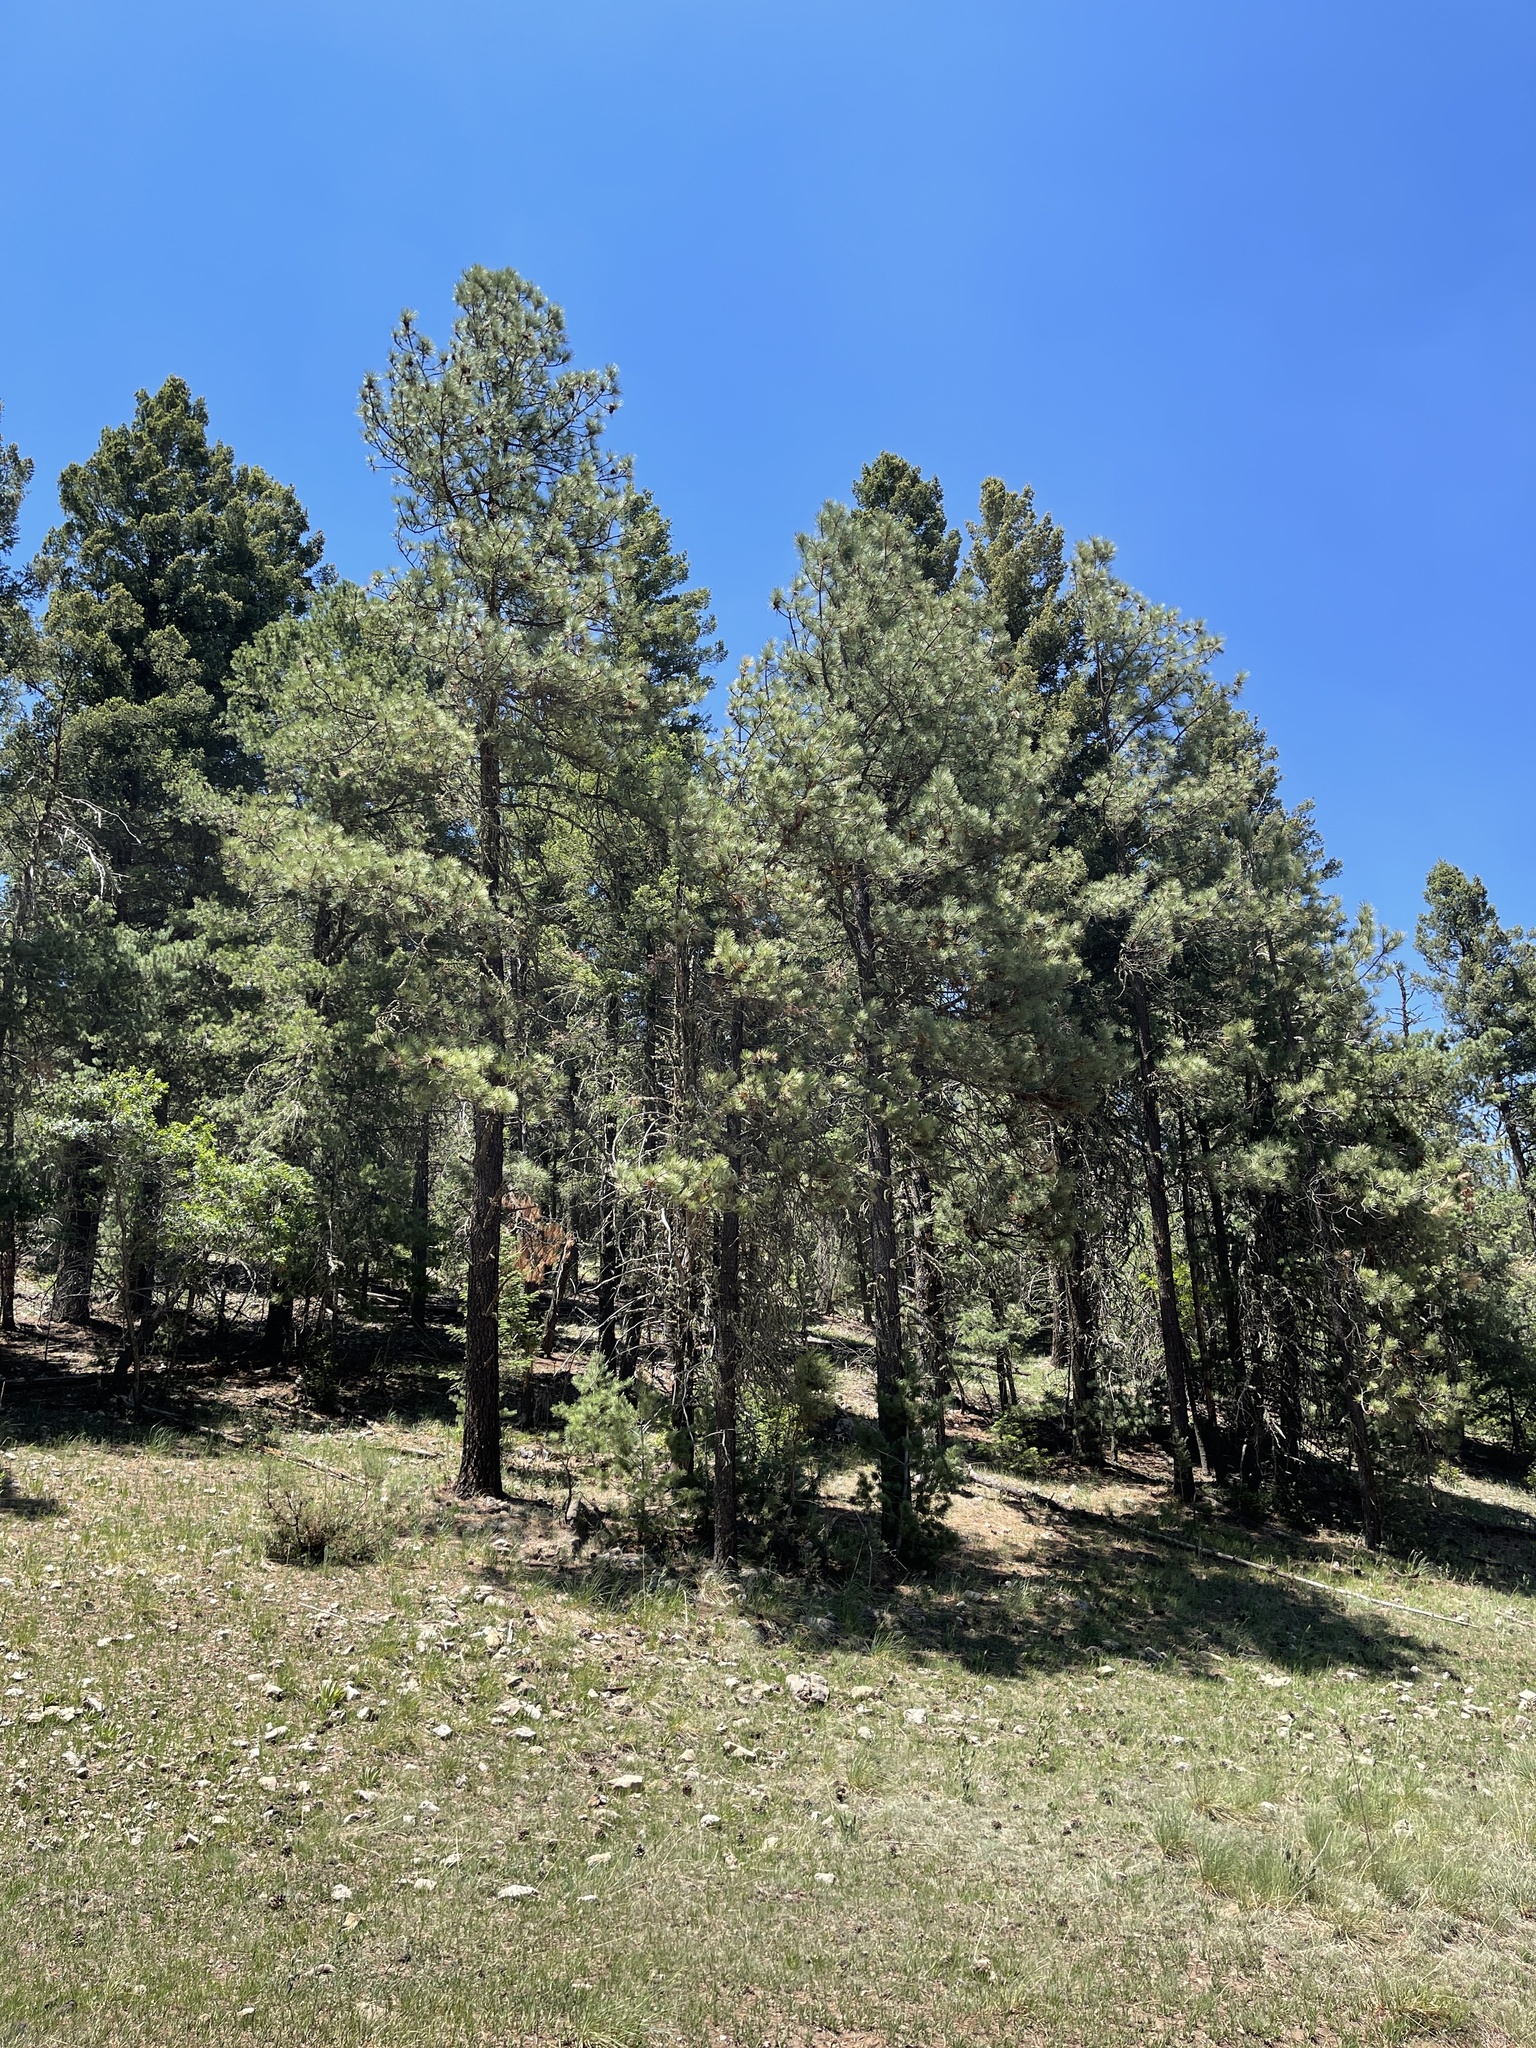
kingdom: Plantae
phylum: Tracheophyta
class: Pinopsida
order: Pinales
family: Pinaceae
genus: Pinus
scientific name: Pinus ponderosa
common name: Western yellow-pine
